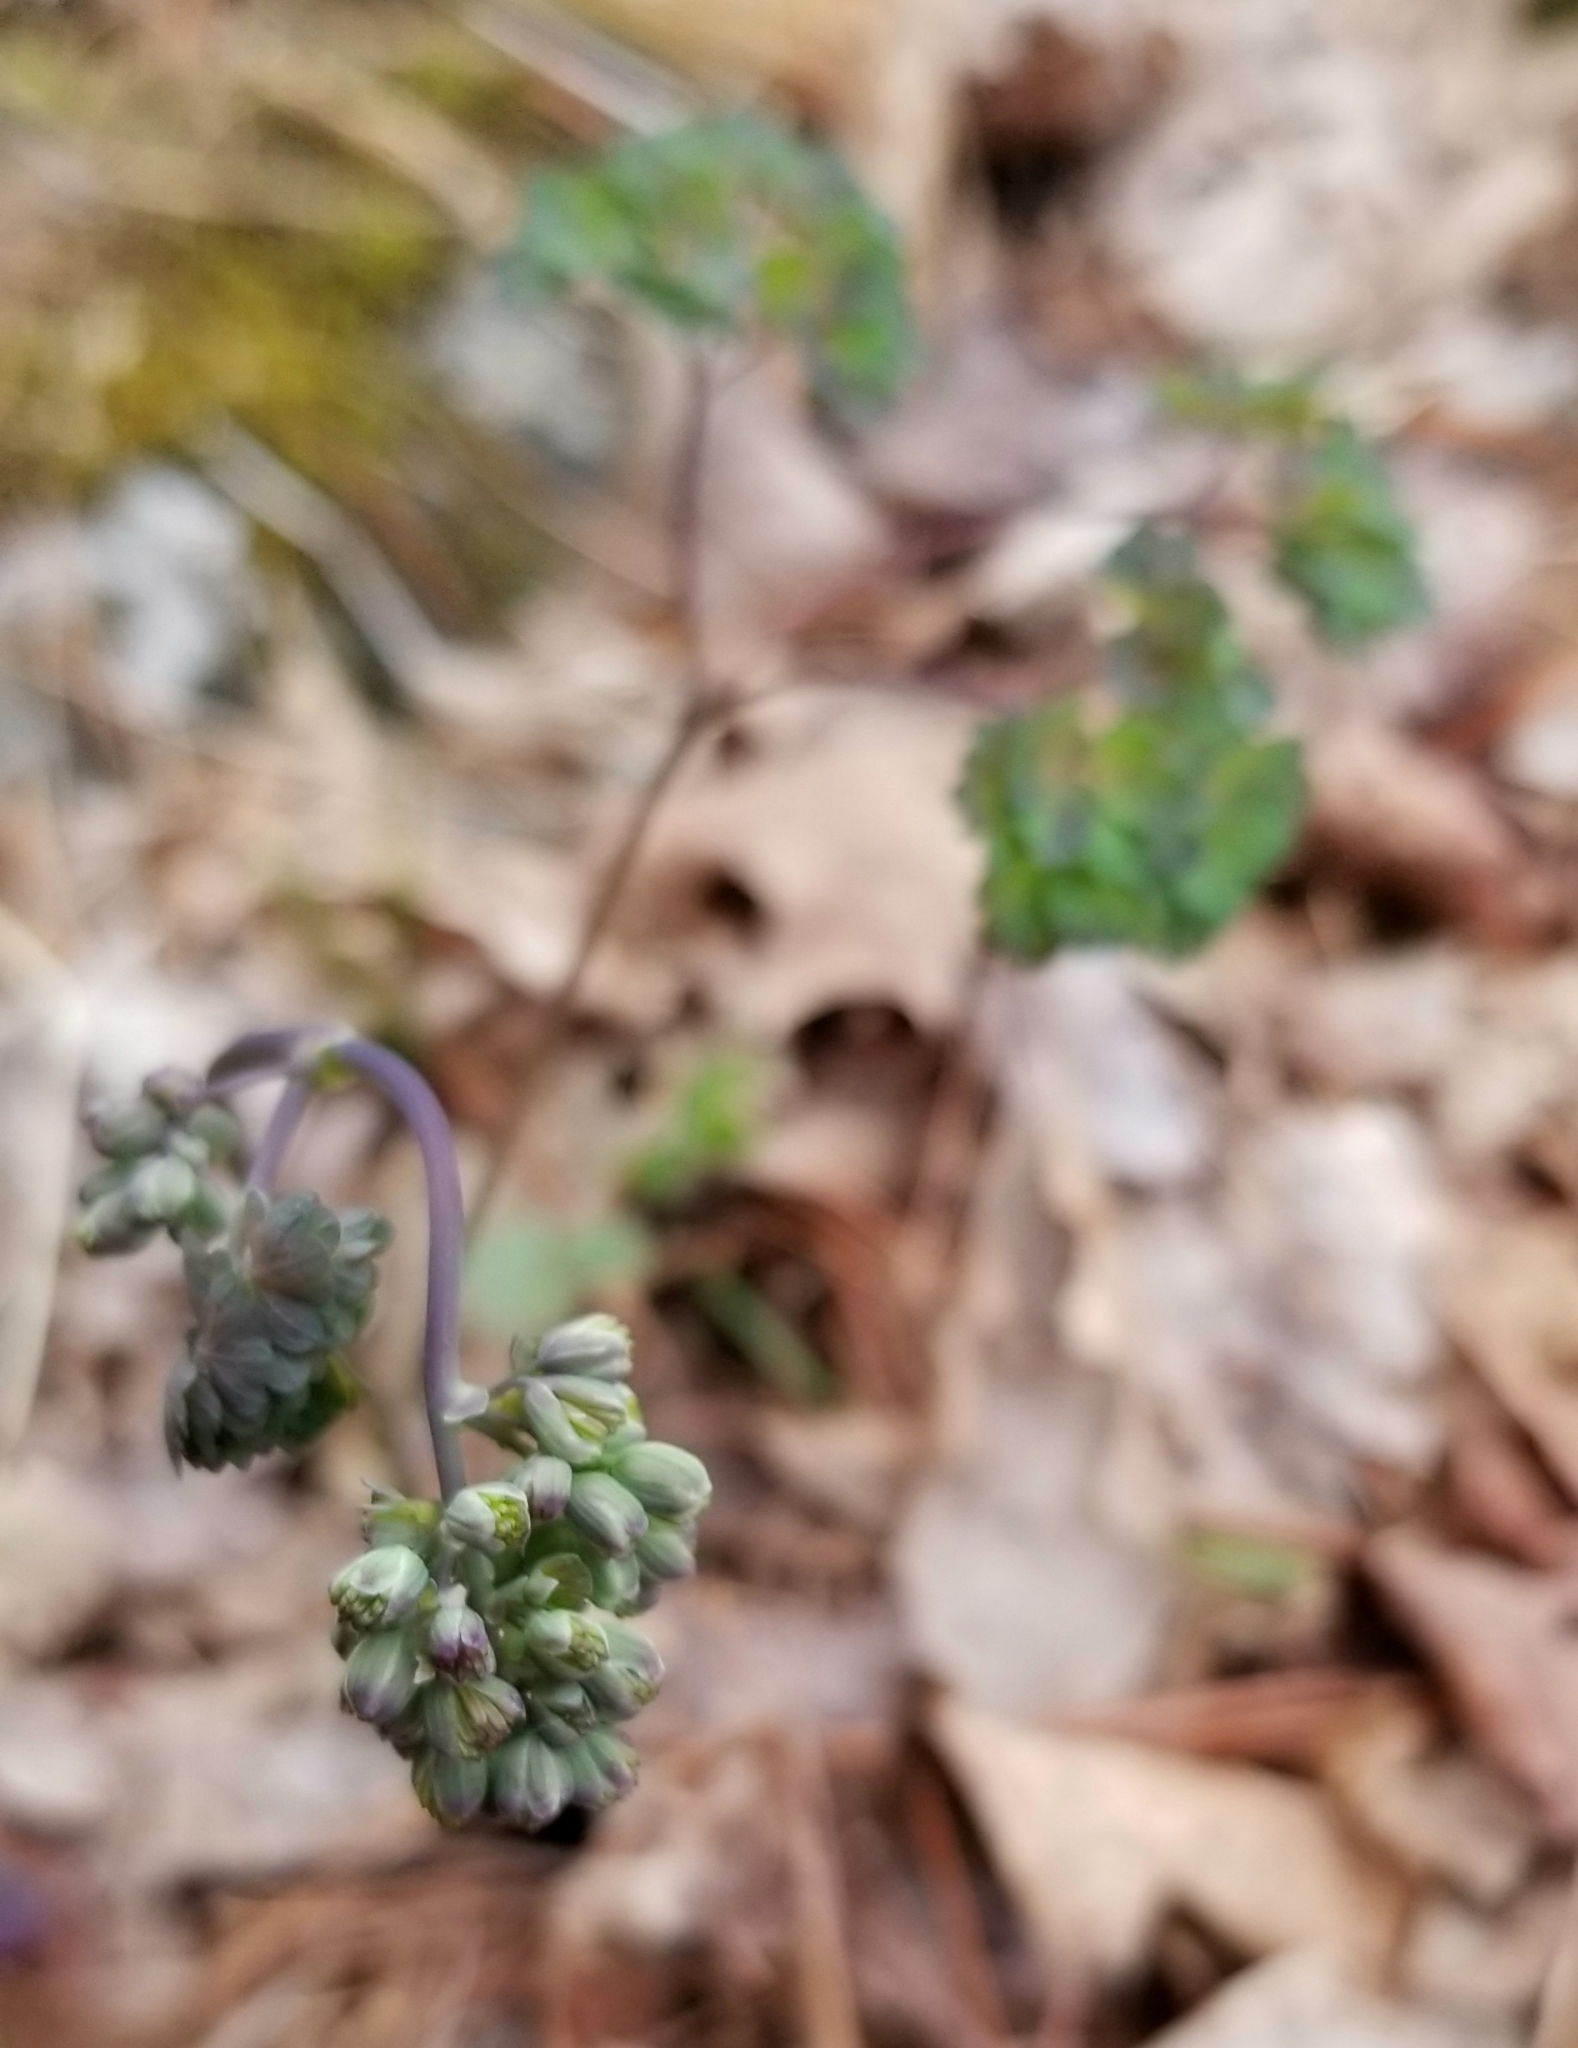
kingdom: Plantae
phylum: Tracheophyta
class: Magnoliopsida
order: Ranunculales
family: Ranunculaceae
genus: Thalictrum
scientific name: Thalictrum dioicum
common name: Early meadow-rue
